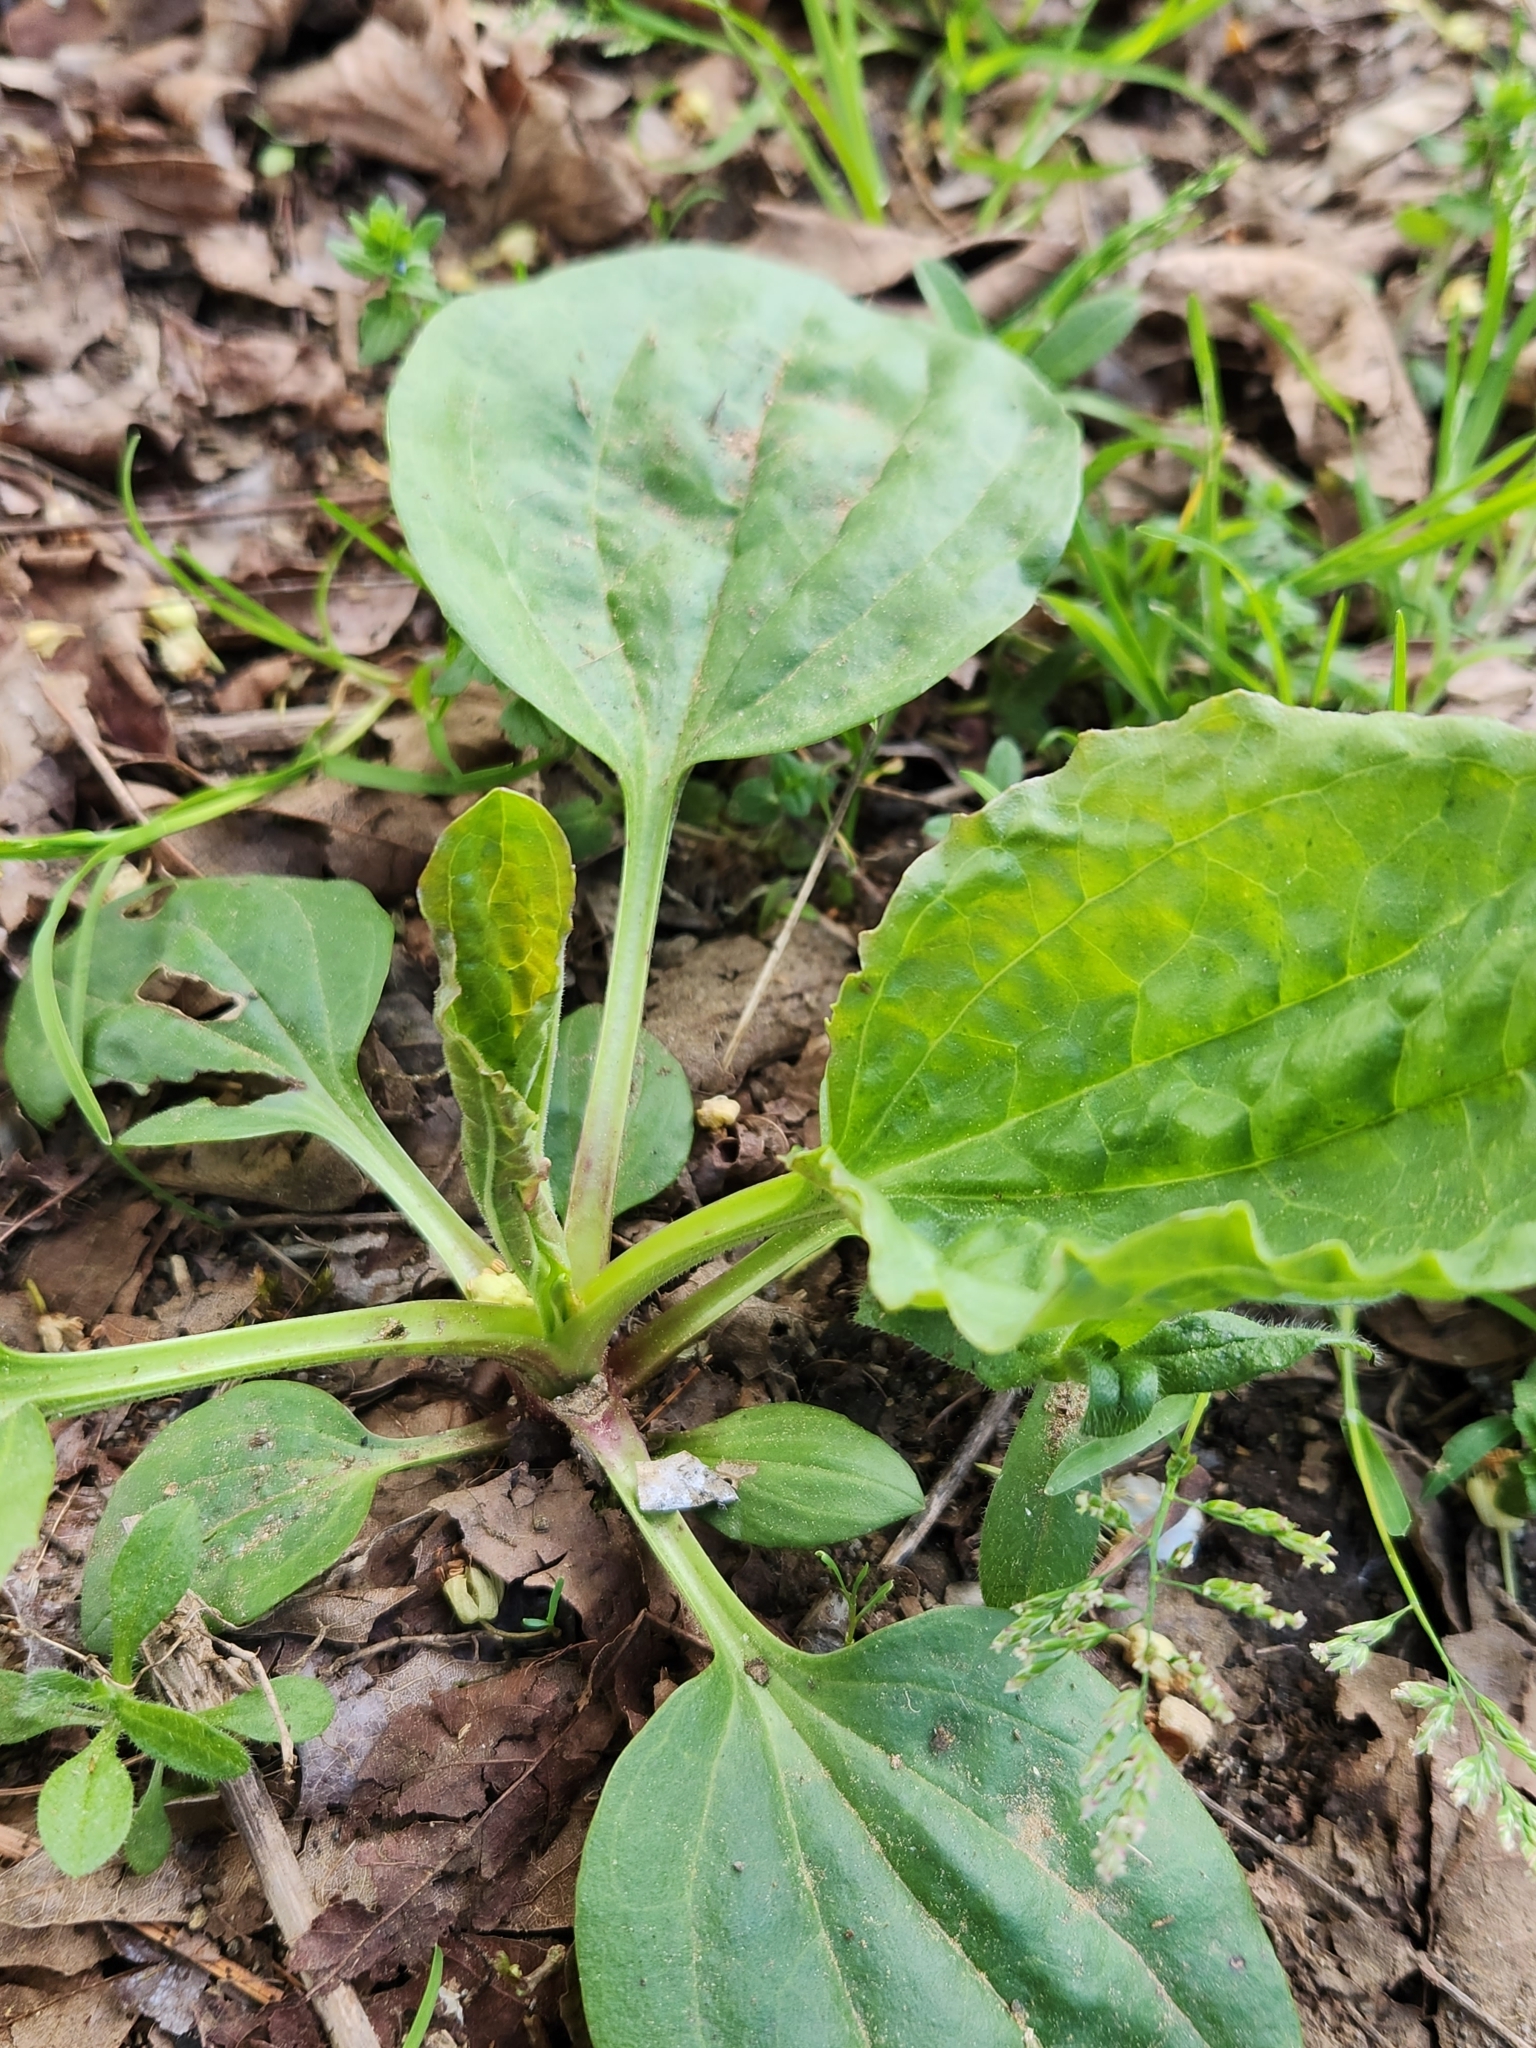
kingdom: Plantae
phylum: Tracheophyta
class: Magnoliopsida
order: Lamiales
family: Plantaginaceae
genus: Plantago
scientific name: Plantago major
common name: Common plantain
